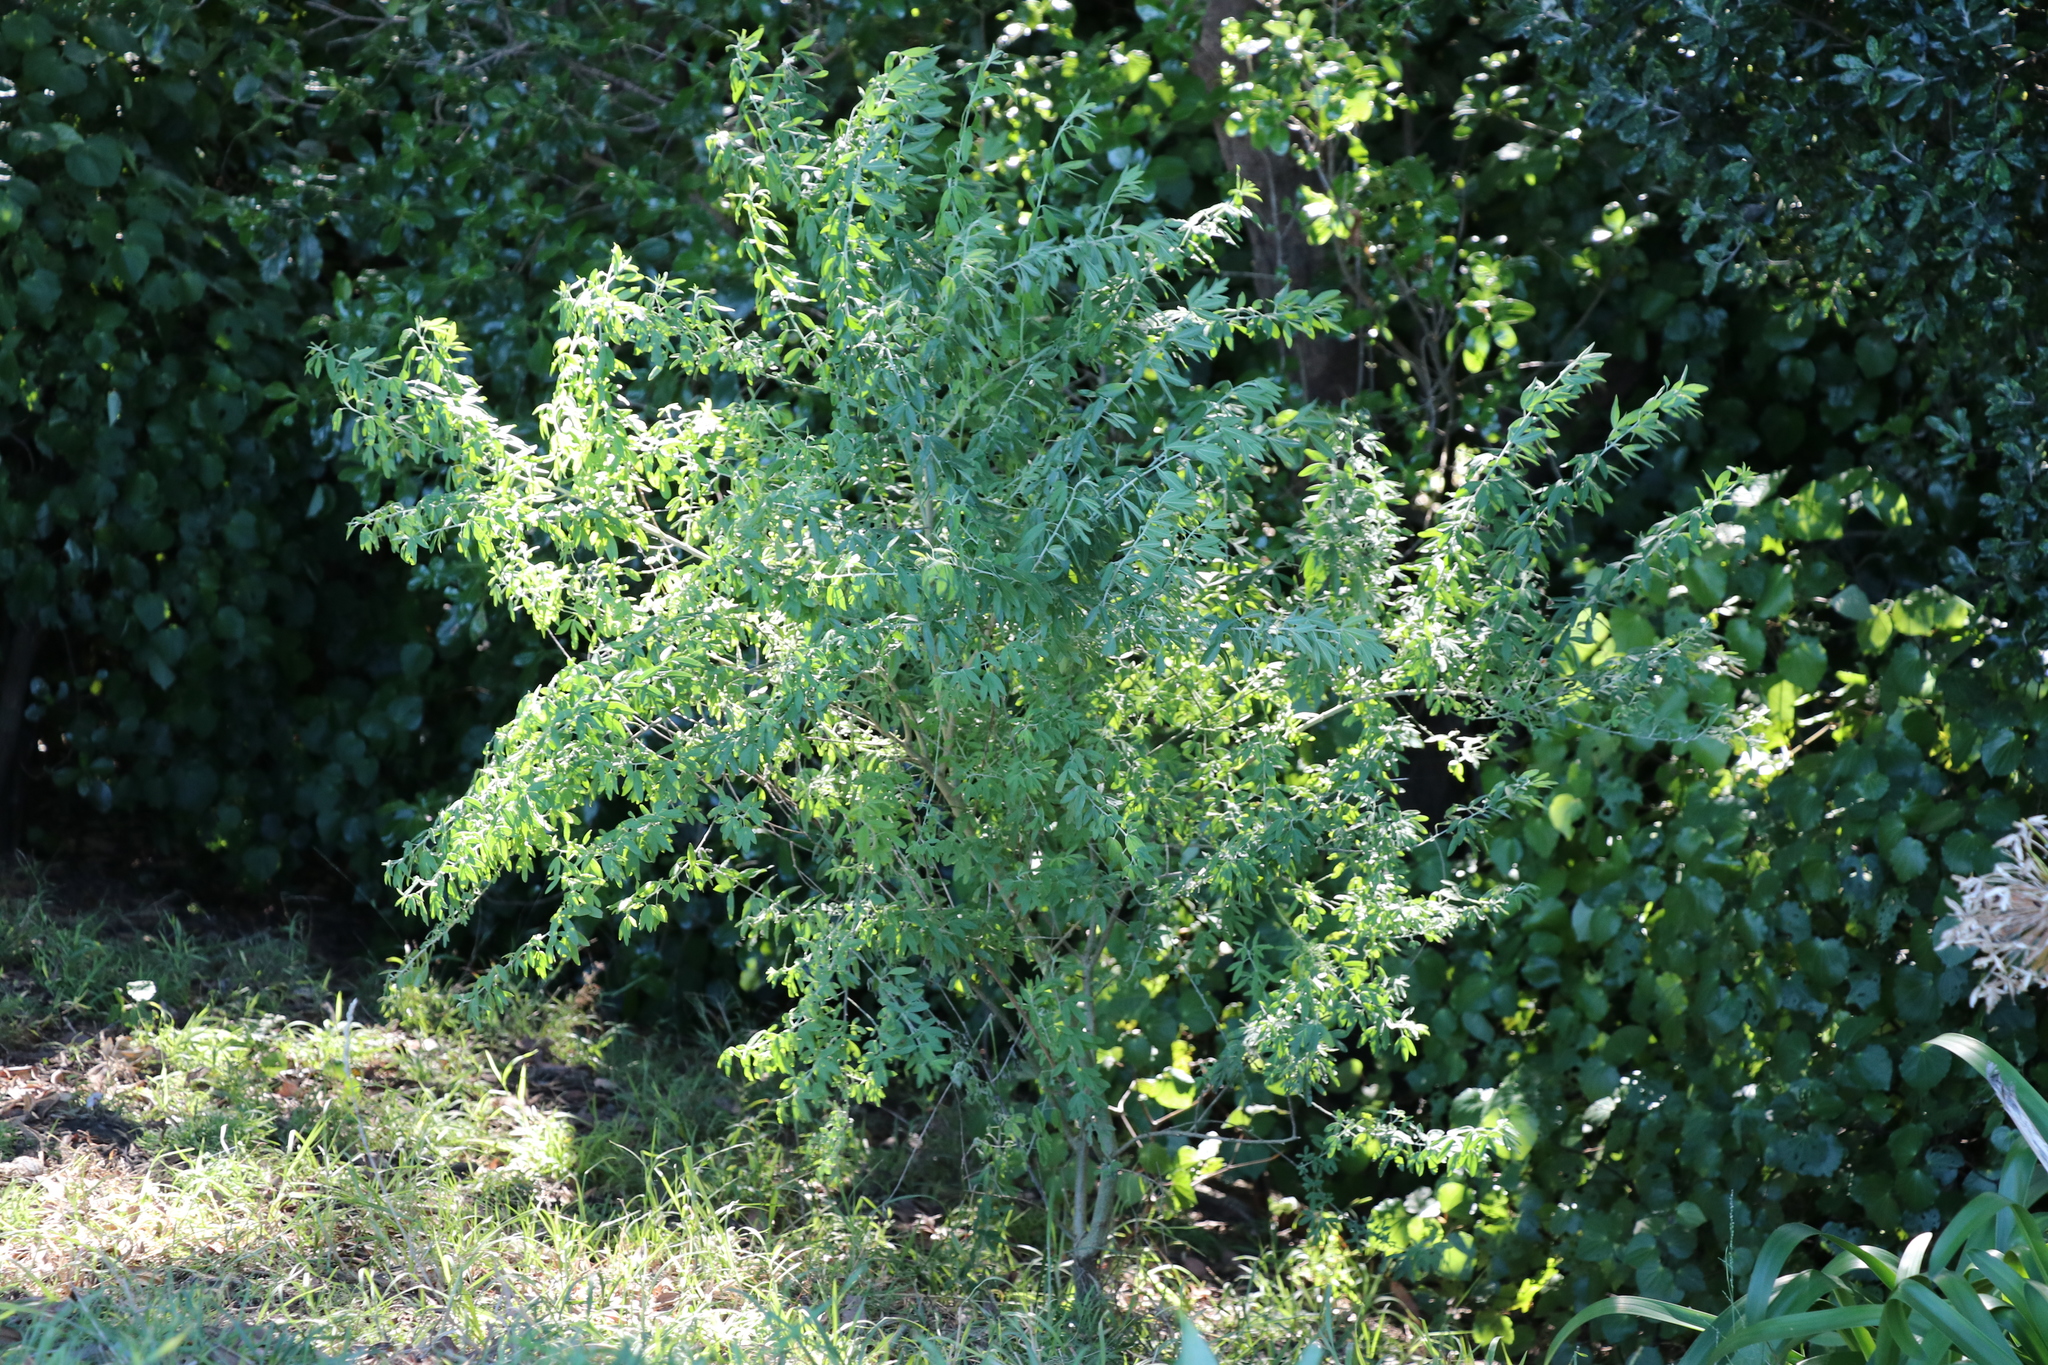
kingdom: Plantae
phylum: Tracheophyta
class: Magnoliopsida
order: Fabales
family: Fabaceae
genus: Chamaecytisus
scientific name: Chamaecytisus prolifer
